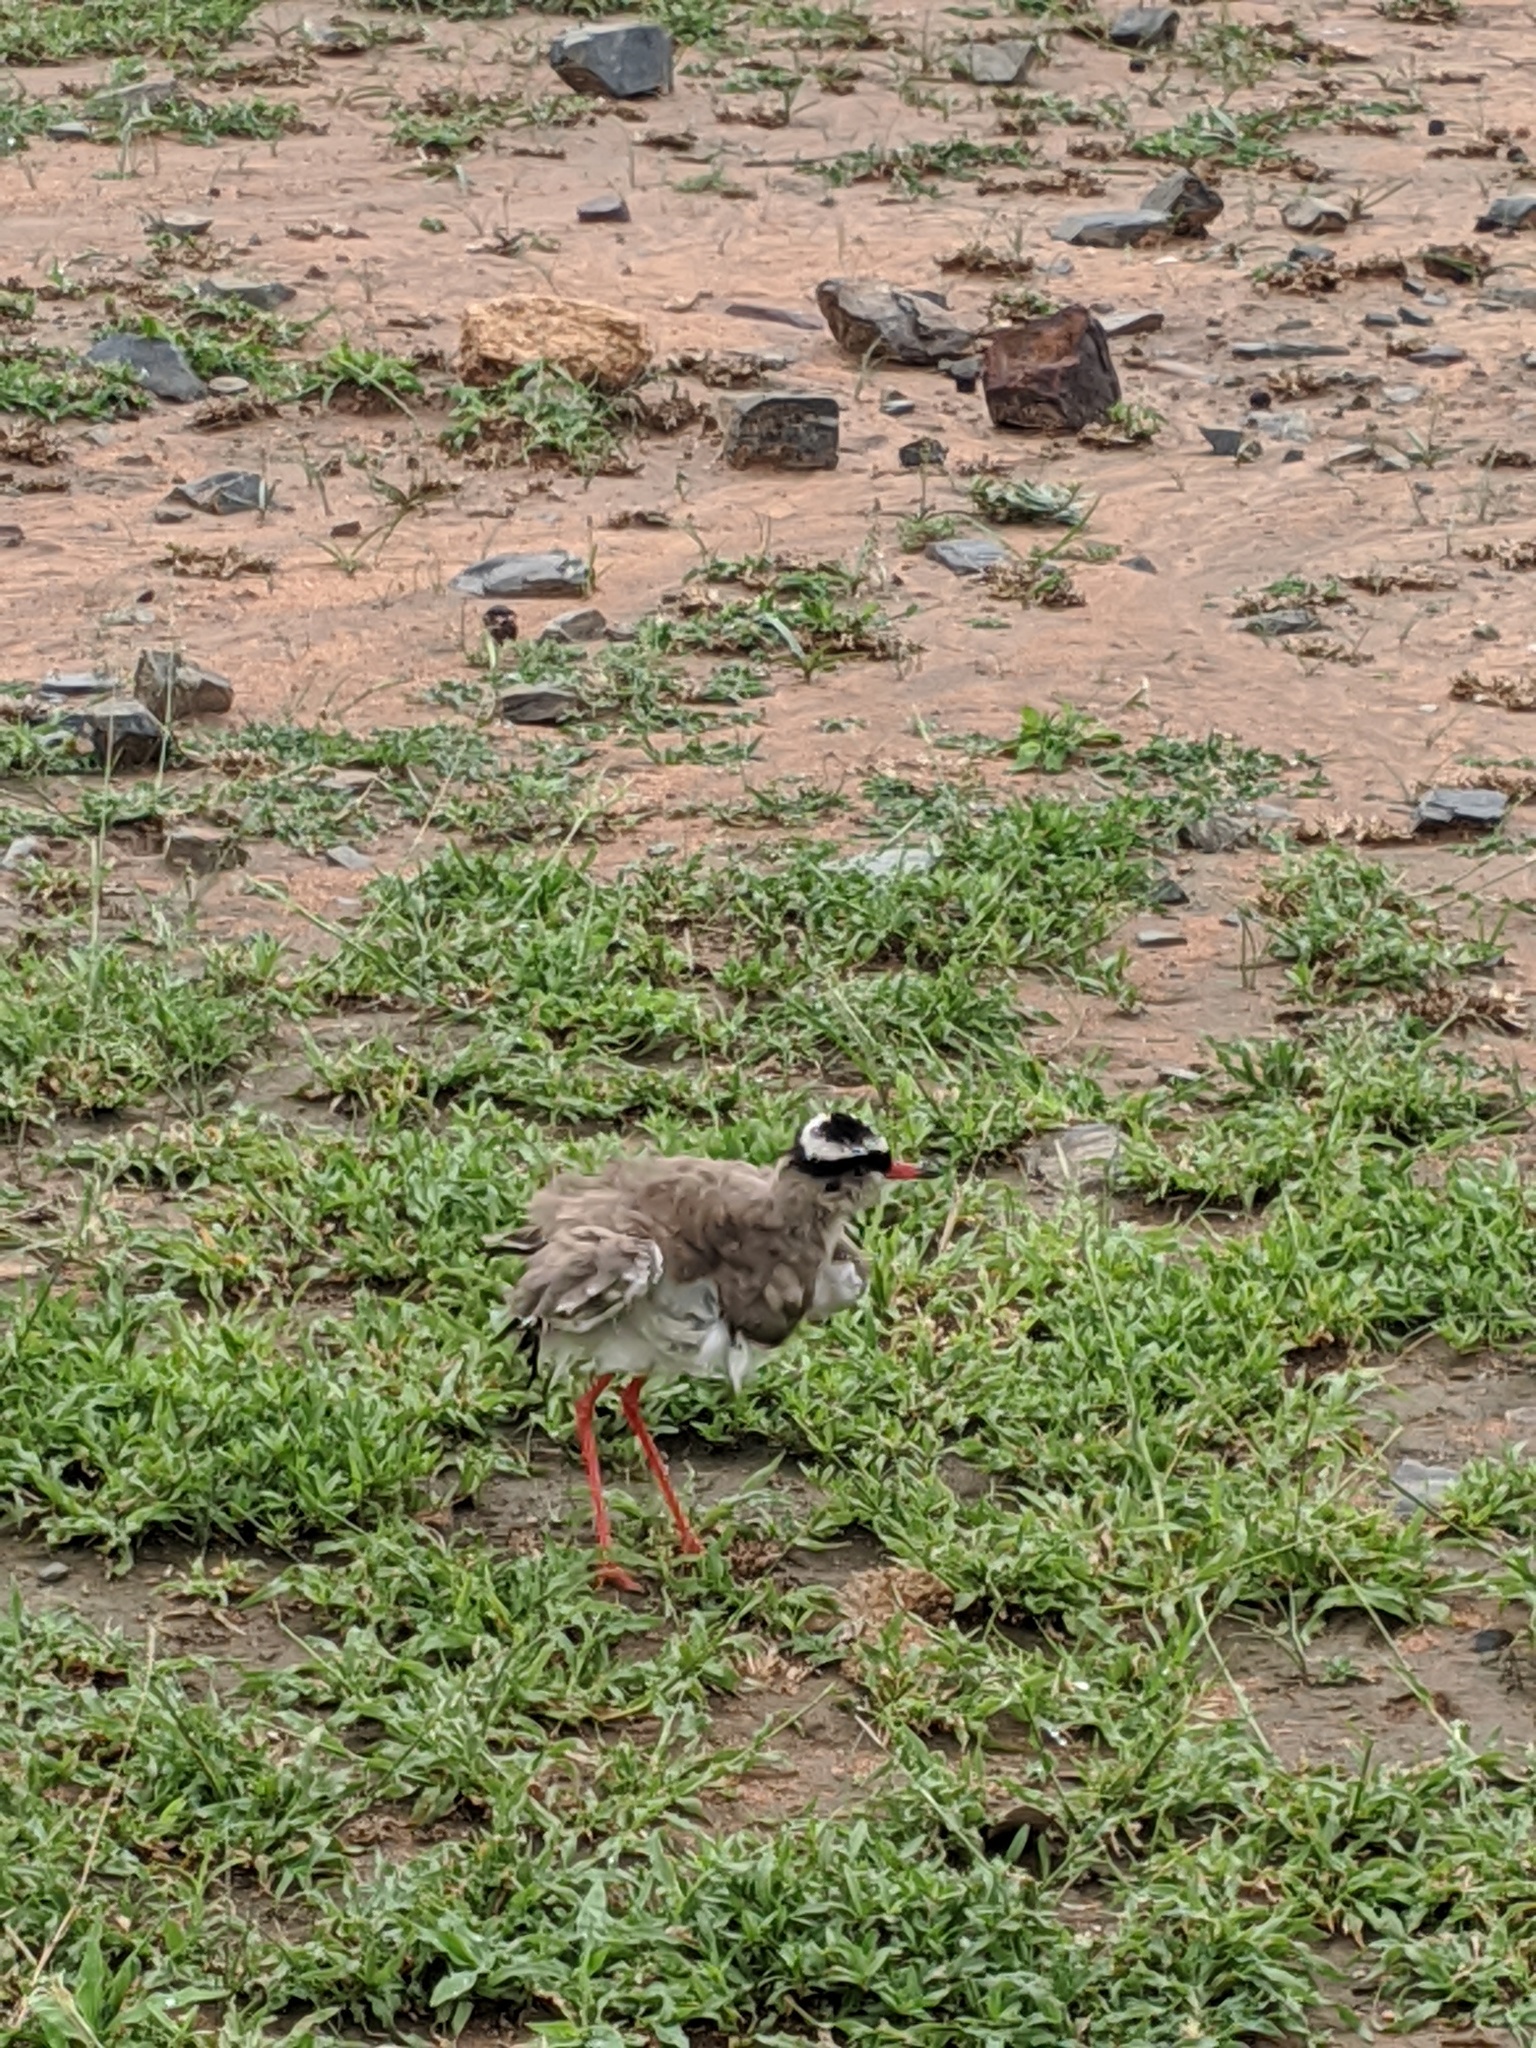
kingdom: Animalia
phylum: Chordata
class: Aves
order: Charadriiformes
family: Charadriidae
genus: Vanellus
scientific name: Vanellus coronatus
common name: Crowned lapwing
